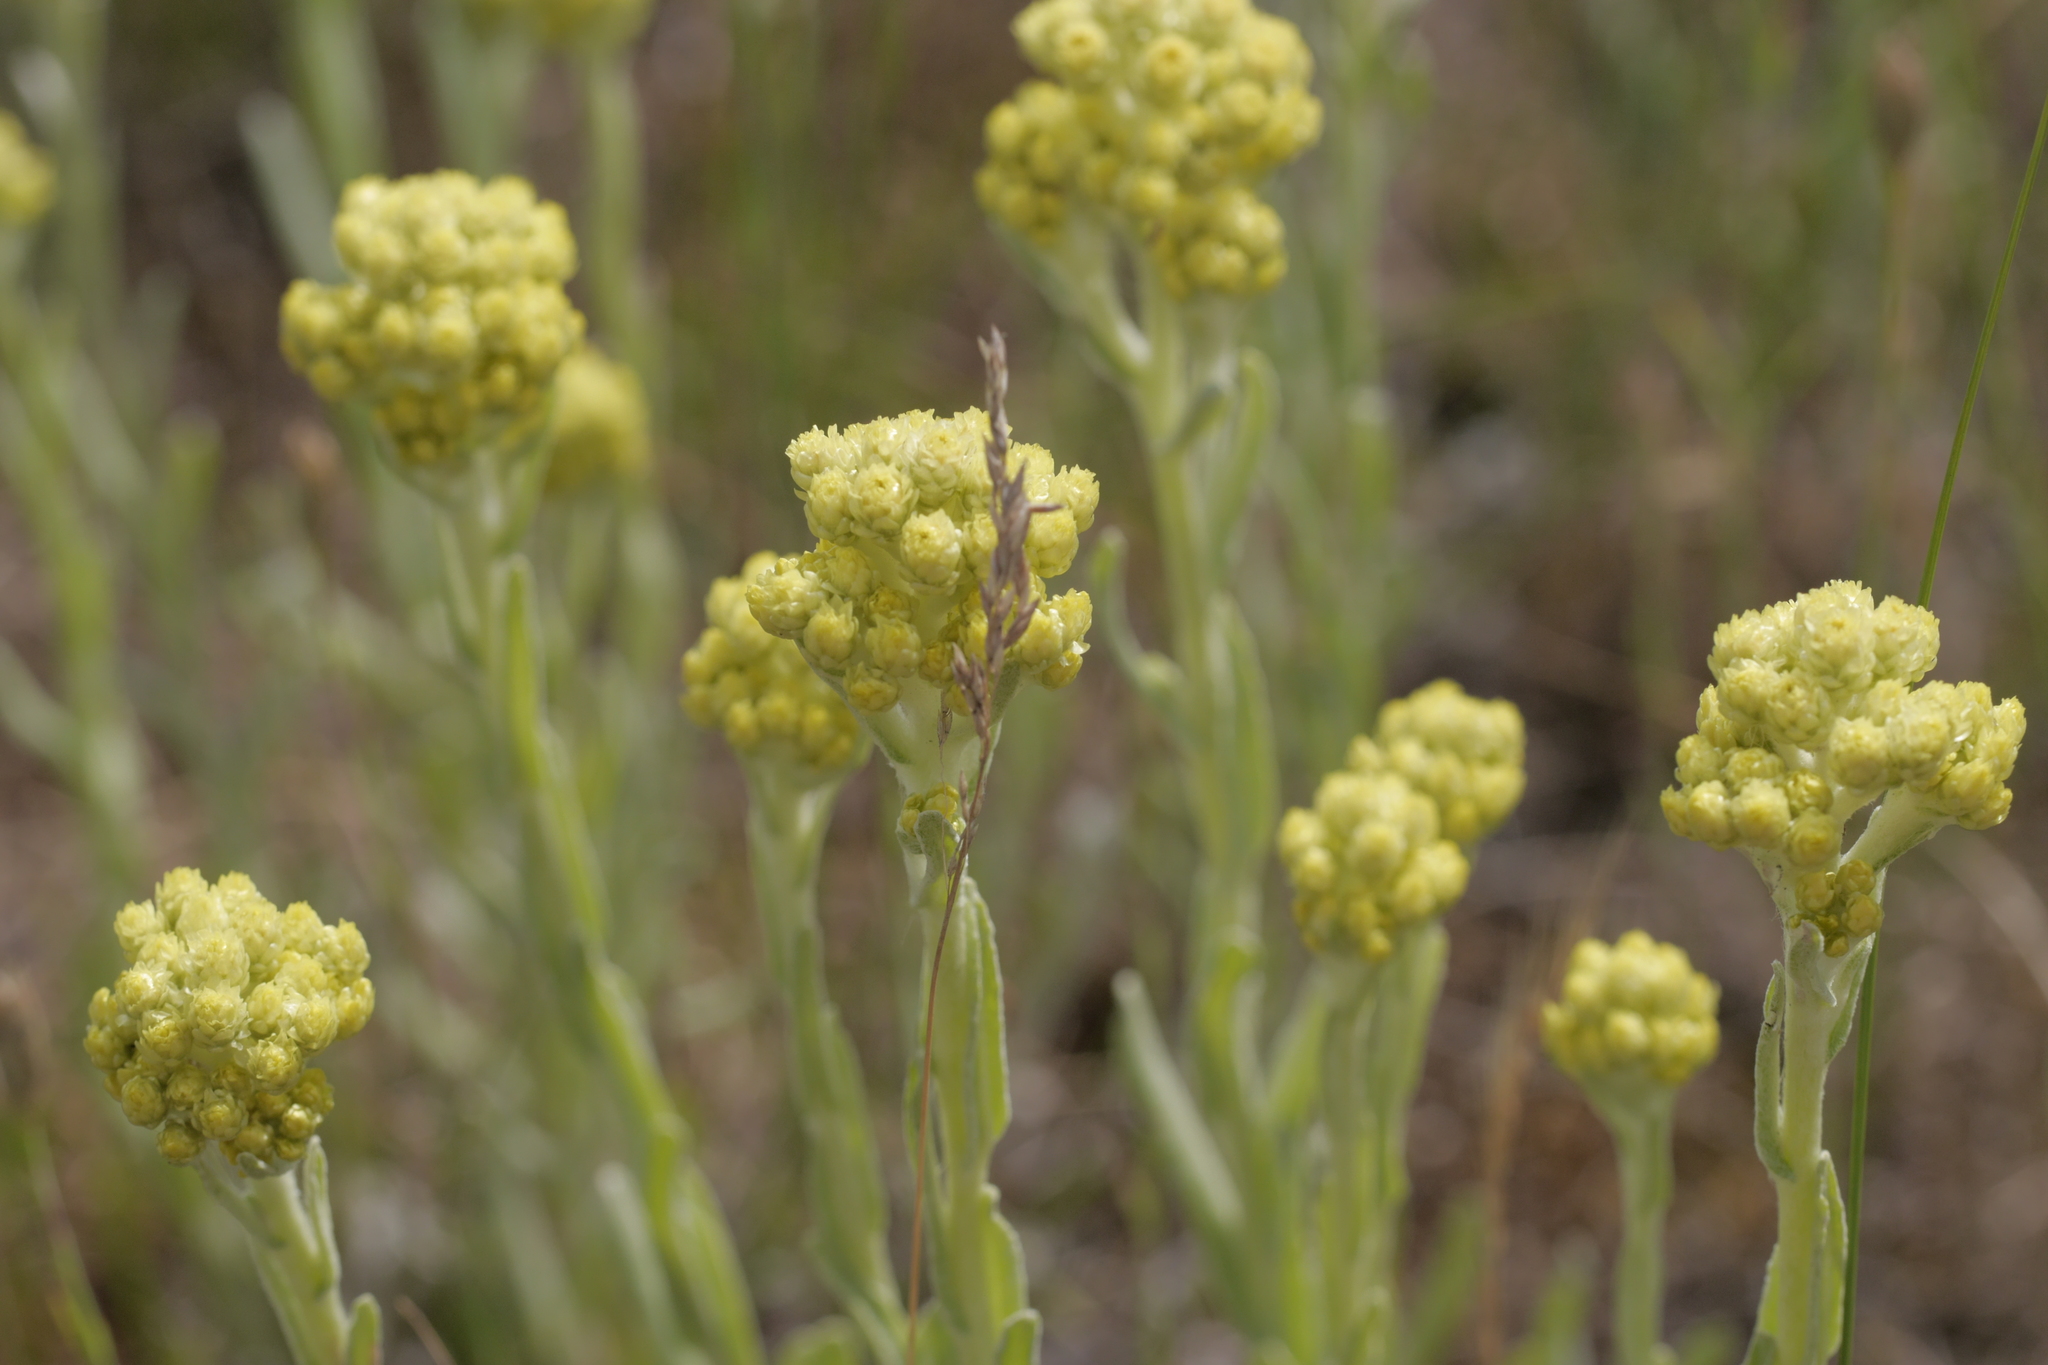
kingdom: Plantae
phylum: Tracheophyta
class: Magnoliopsida
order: Asterales
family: Asteraceae
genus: Helichrysum
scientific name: Helichrysum arenarium
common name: Strawflower
